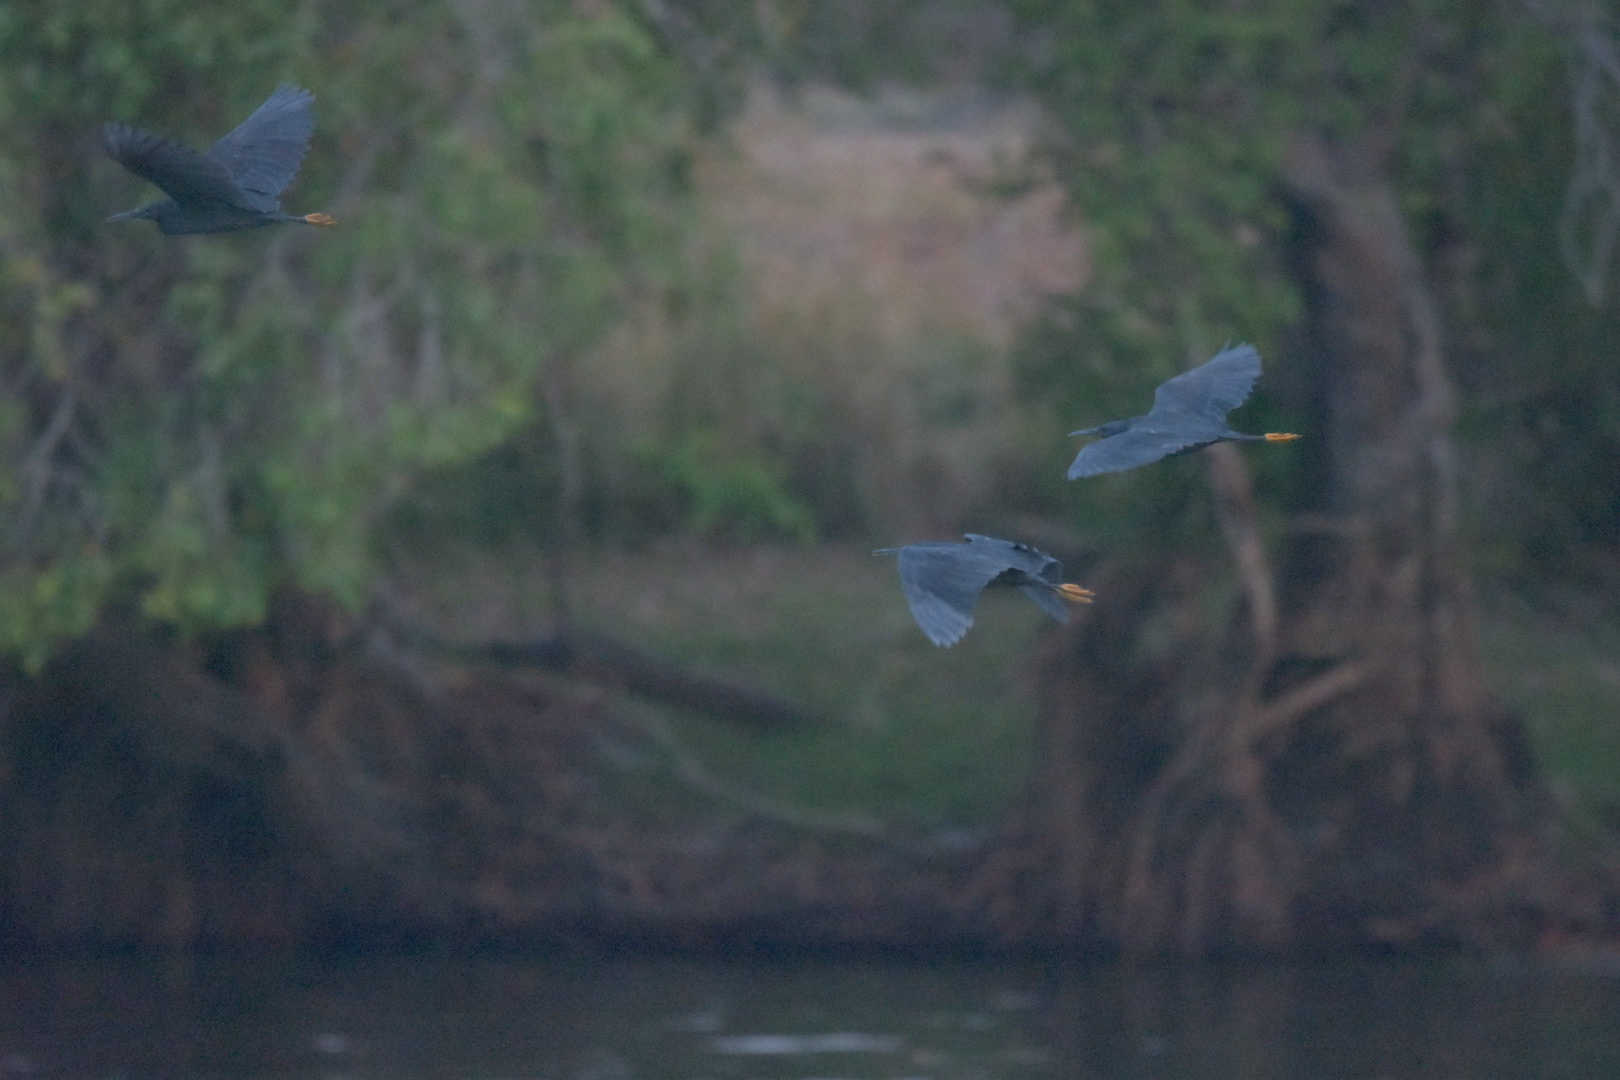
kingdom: Animalia
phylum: Chordata
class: Aves
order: Pelecaniformes
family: Ardeidae
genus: Egretta
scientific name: Egretta ardesiaca
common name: Black heron
